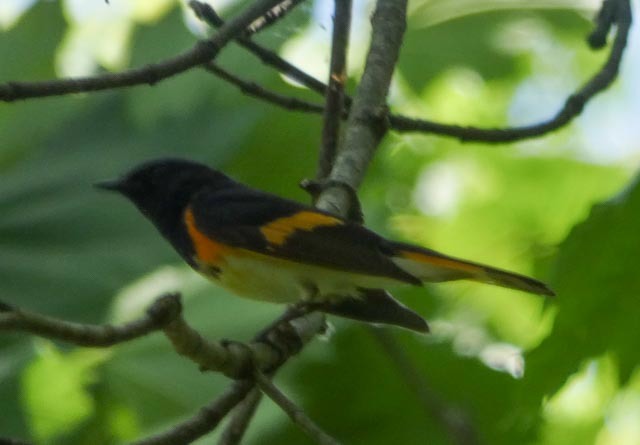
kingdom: Animalia
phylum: Chordata
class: Aves
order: Passeriformes
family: Parulidae
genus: Setophaga
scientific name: Setophaga ruticilla
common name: American redstart
